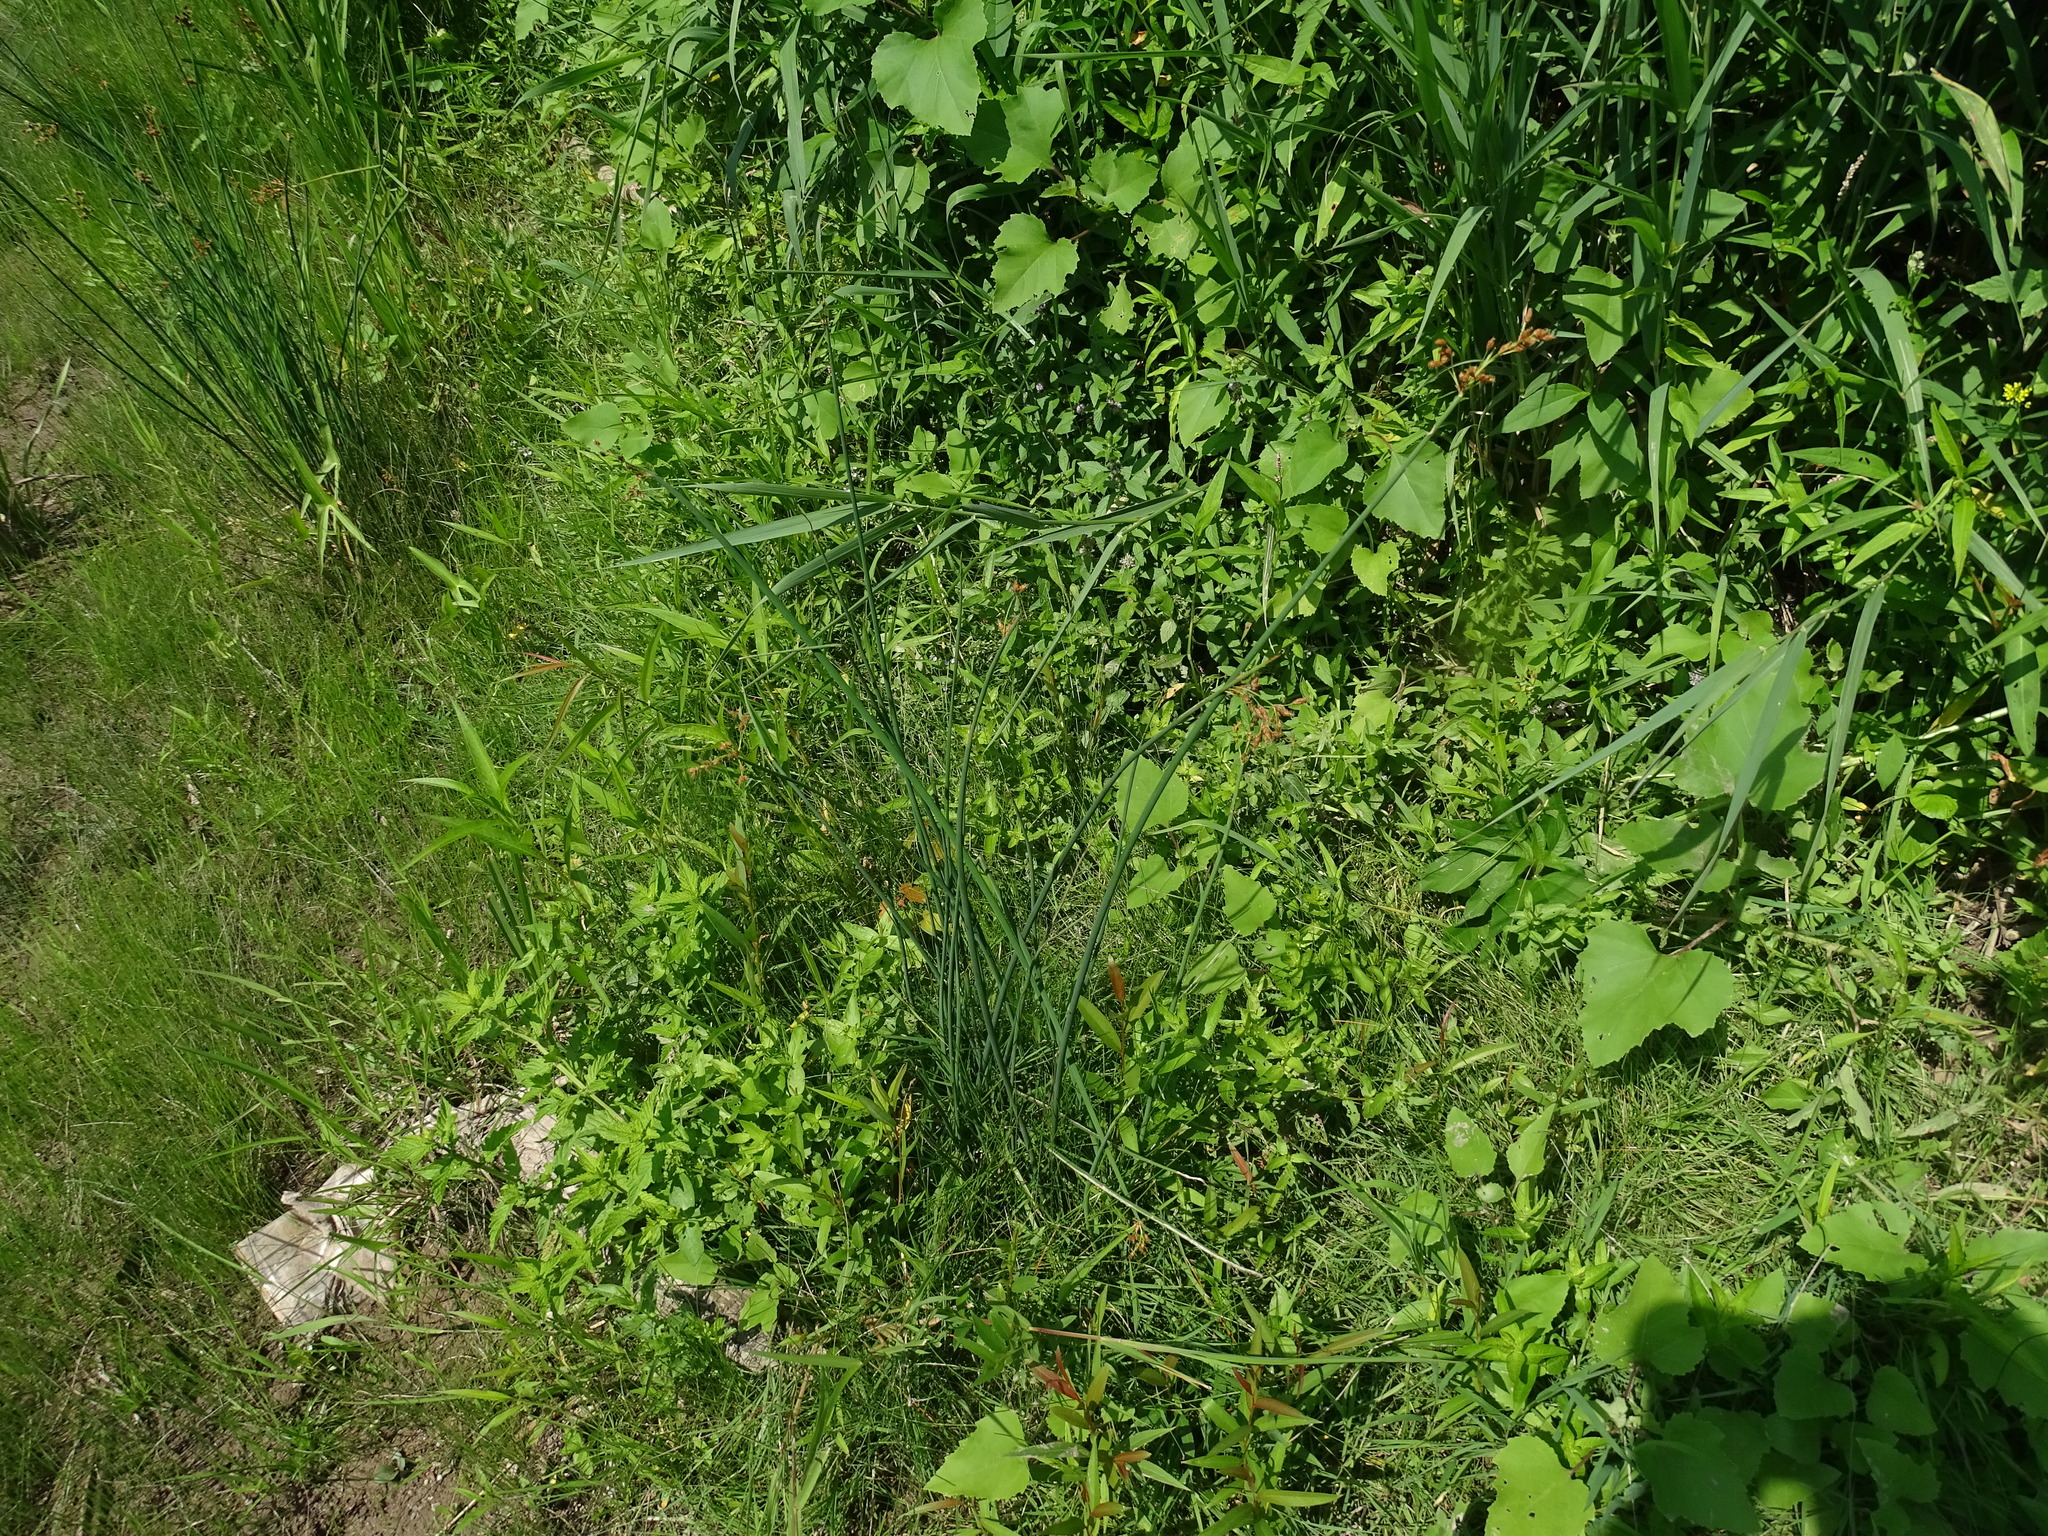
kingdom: Plantae
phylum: Tracheophyta
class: Liliopsida
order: Poales
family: Cyperaceae
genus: Schoenoplectus
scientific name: Schoenoplectus tabernaemontani
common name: Grey club-rush
